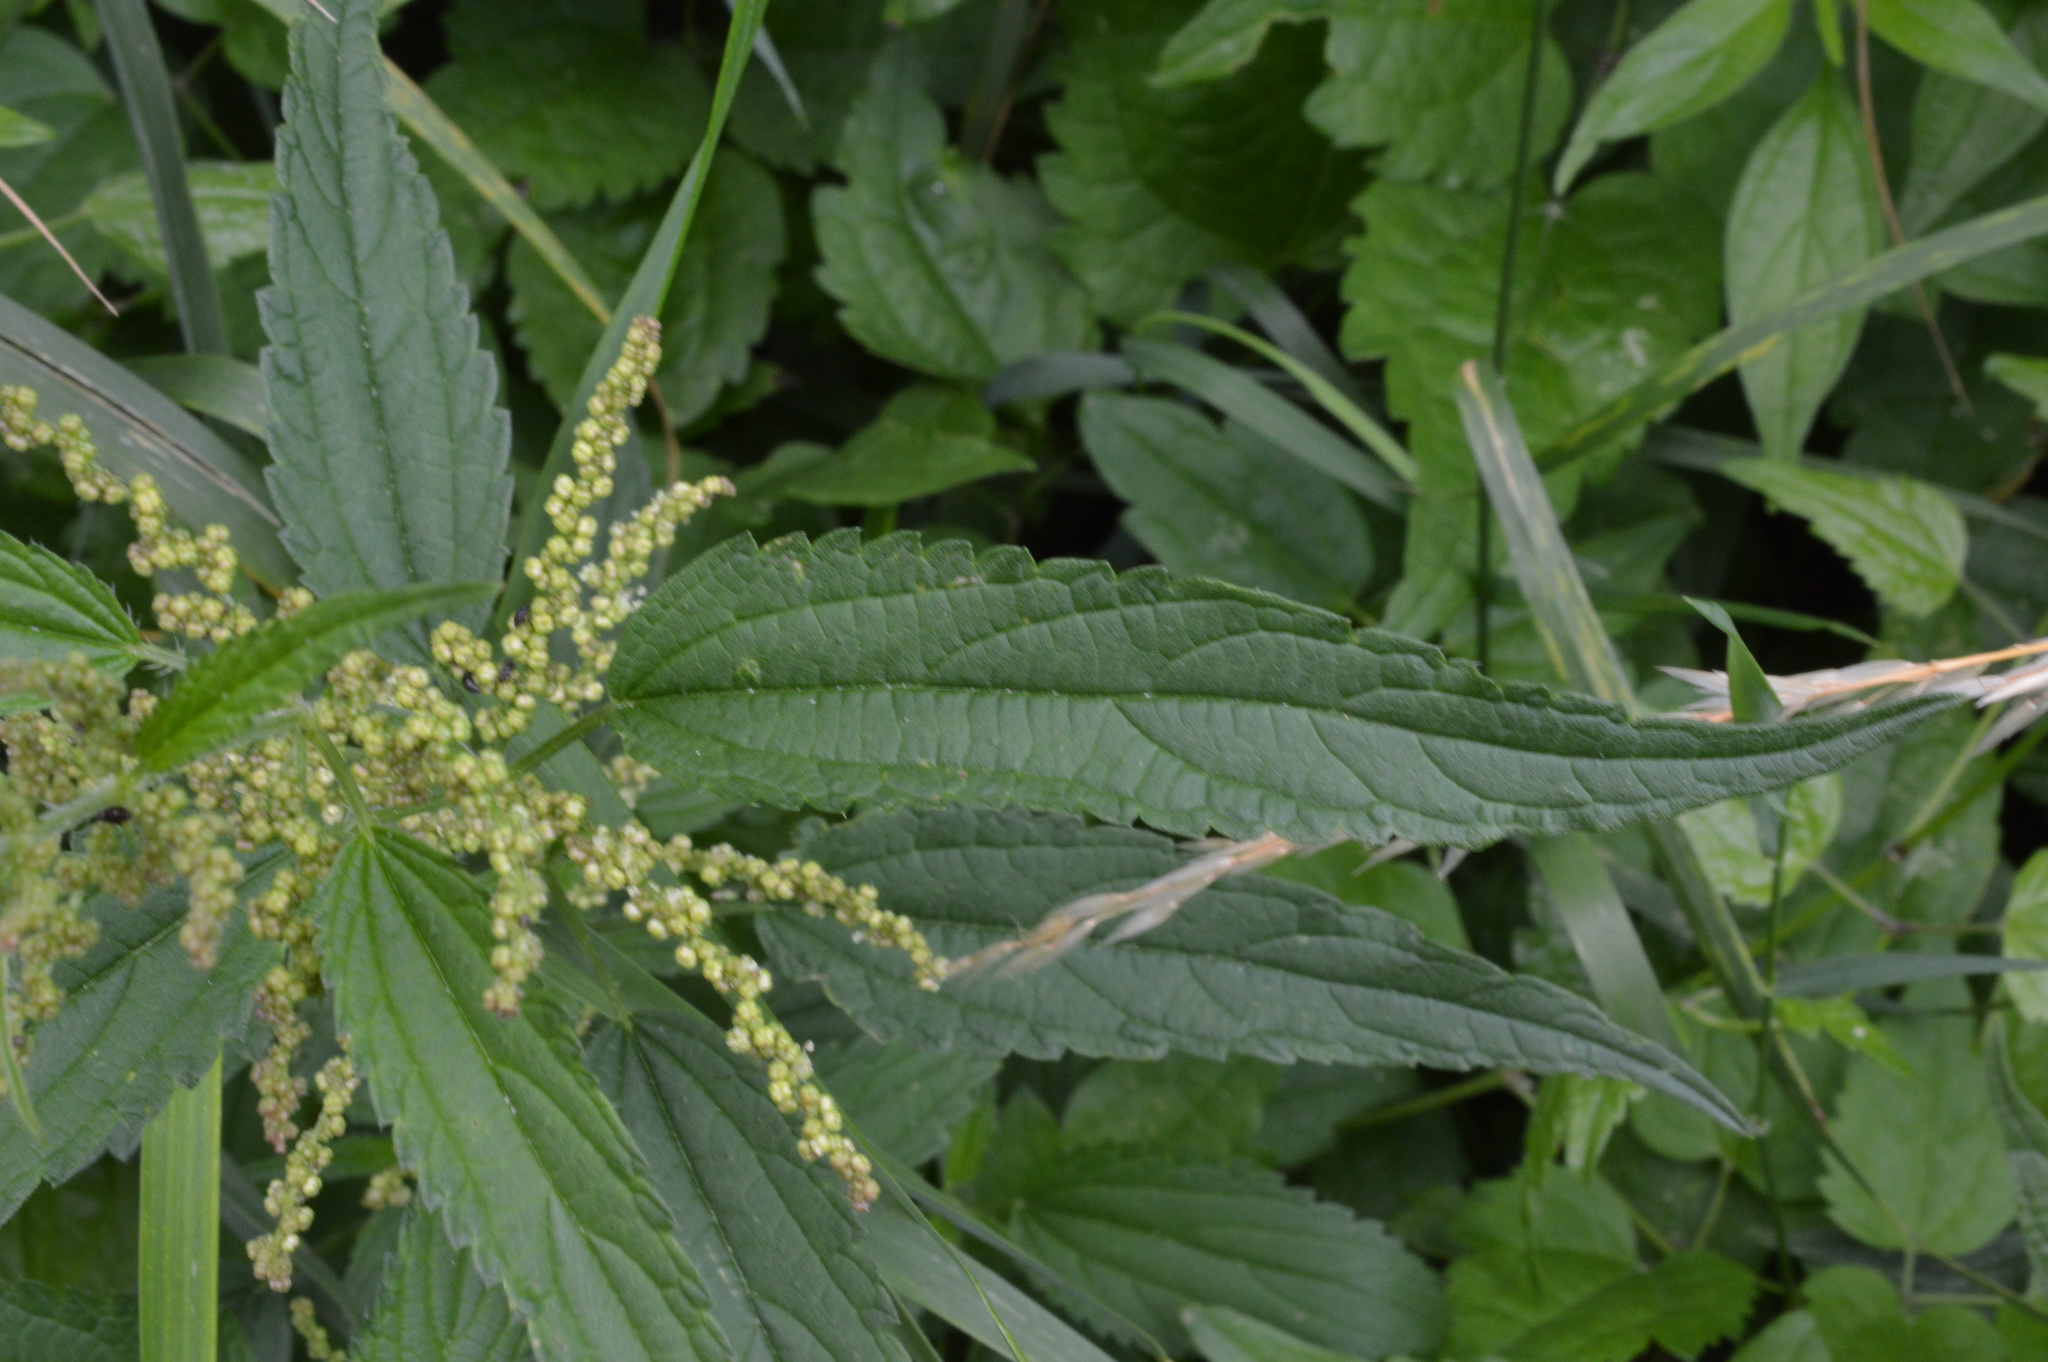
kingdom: Plantae
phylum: Tracheophyta
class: Magnoliopsida
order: Rosales
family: Urticaceae
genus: Urtica
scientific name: Urtica dioica
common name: Common nettle
